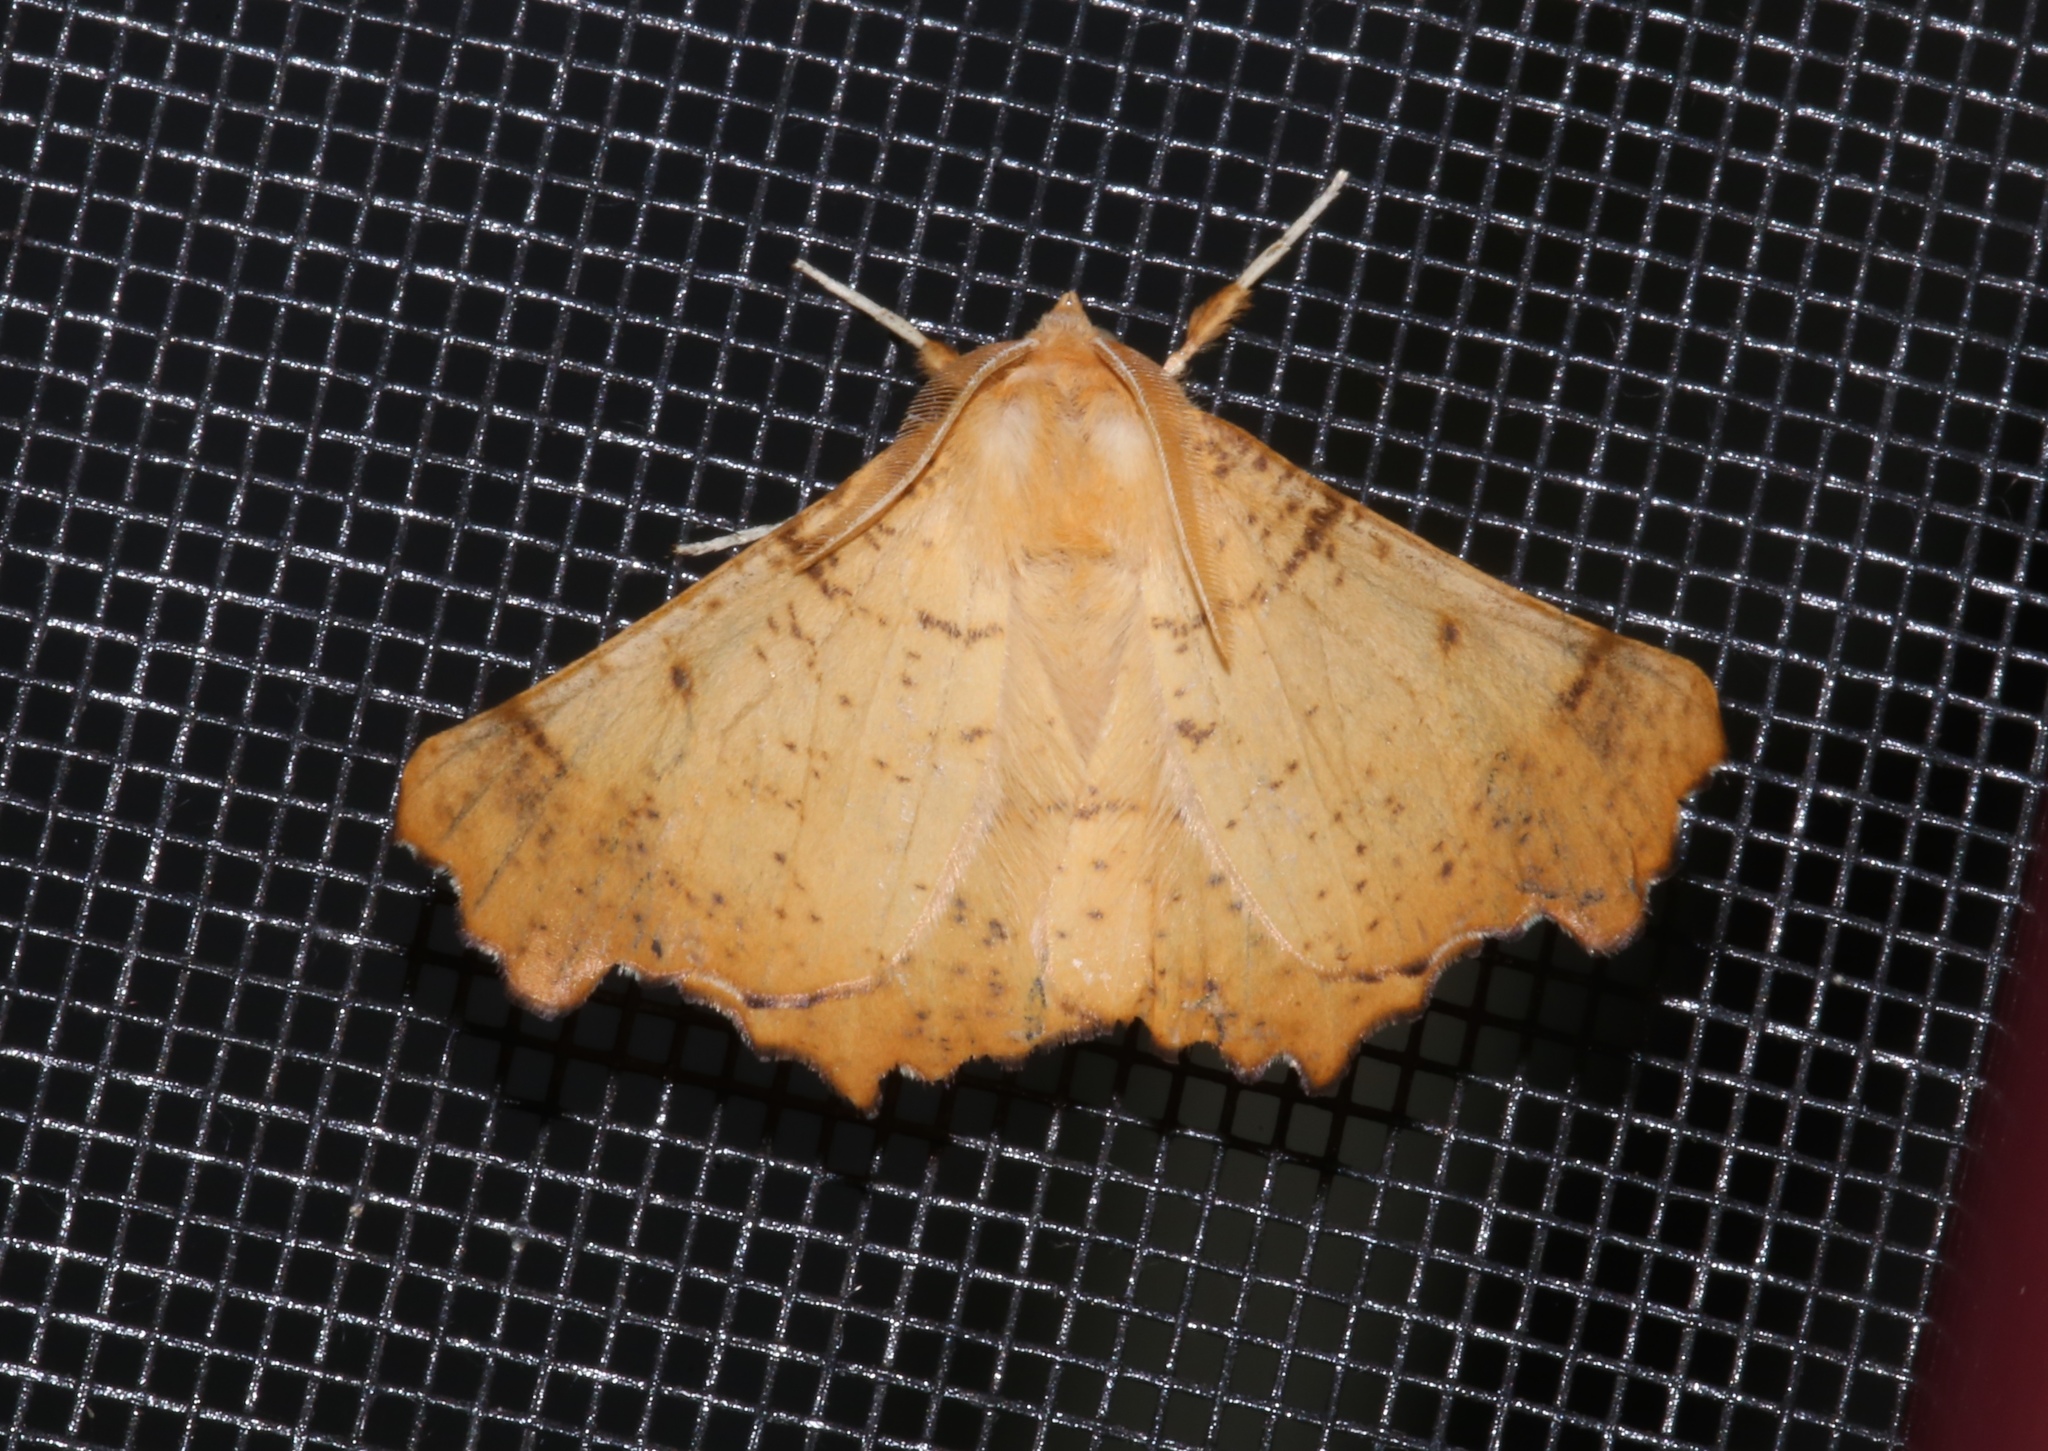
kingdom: Animalia
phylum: Arthropoda
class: Insecta
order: Lepidoptera
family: Geometridae
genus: Ennomos
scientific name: Ennomos magnaria
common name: Maple spanworm
